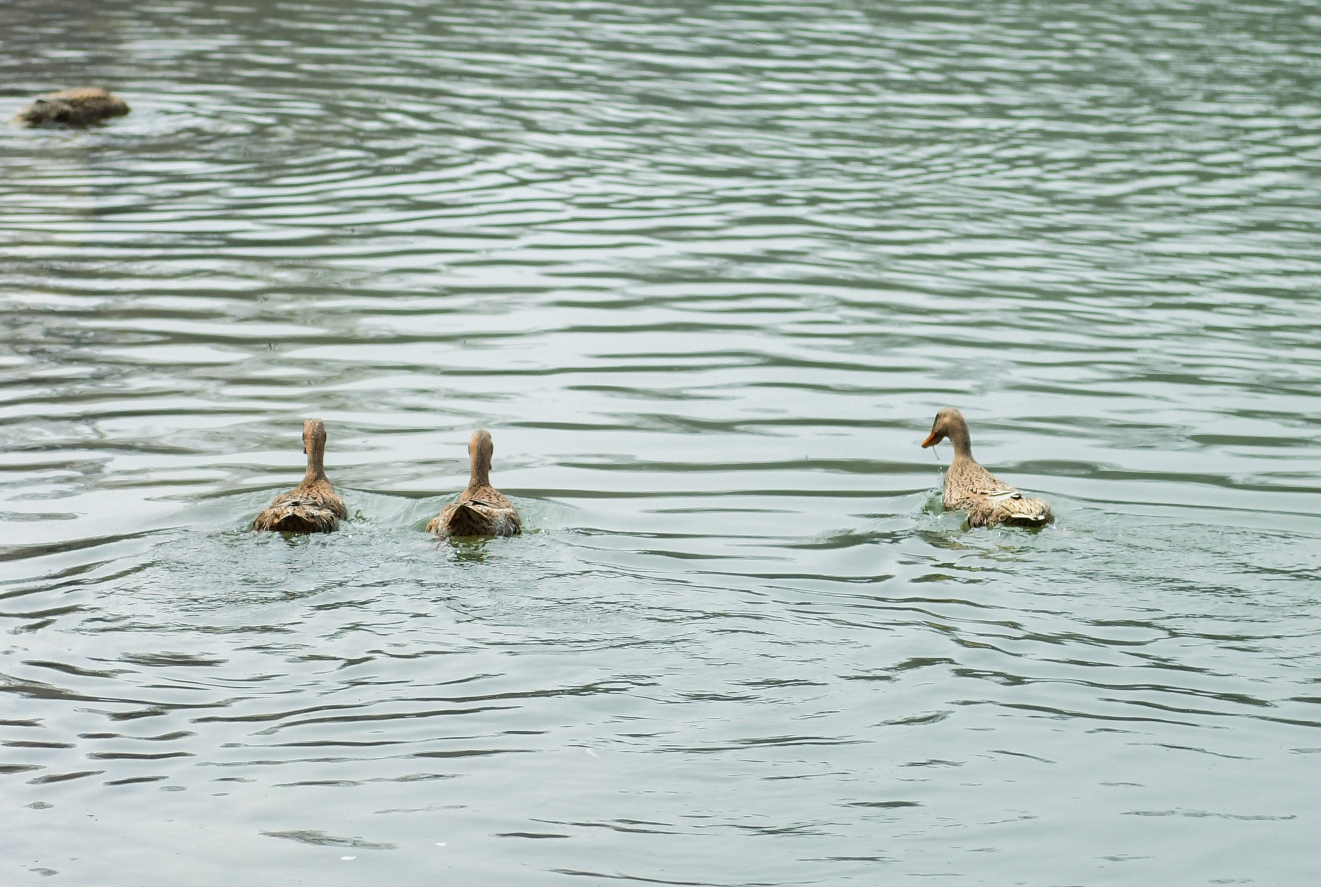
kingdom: Animalia
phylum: Chordata
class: Aves
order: Anseriformes
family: Anatidae
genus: Anas
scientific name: Anas platyrhynchos
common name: Mallard
